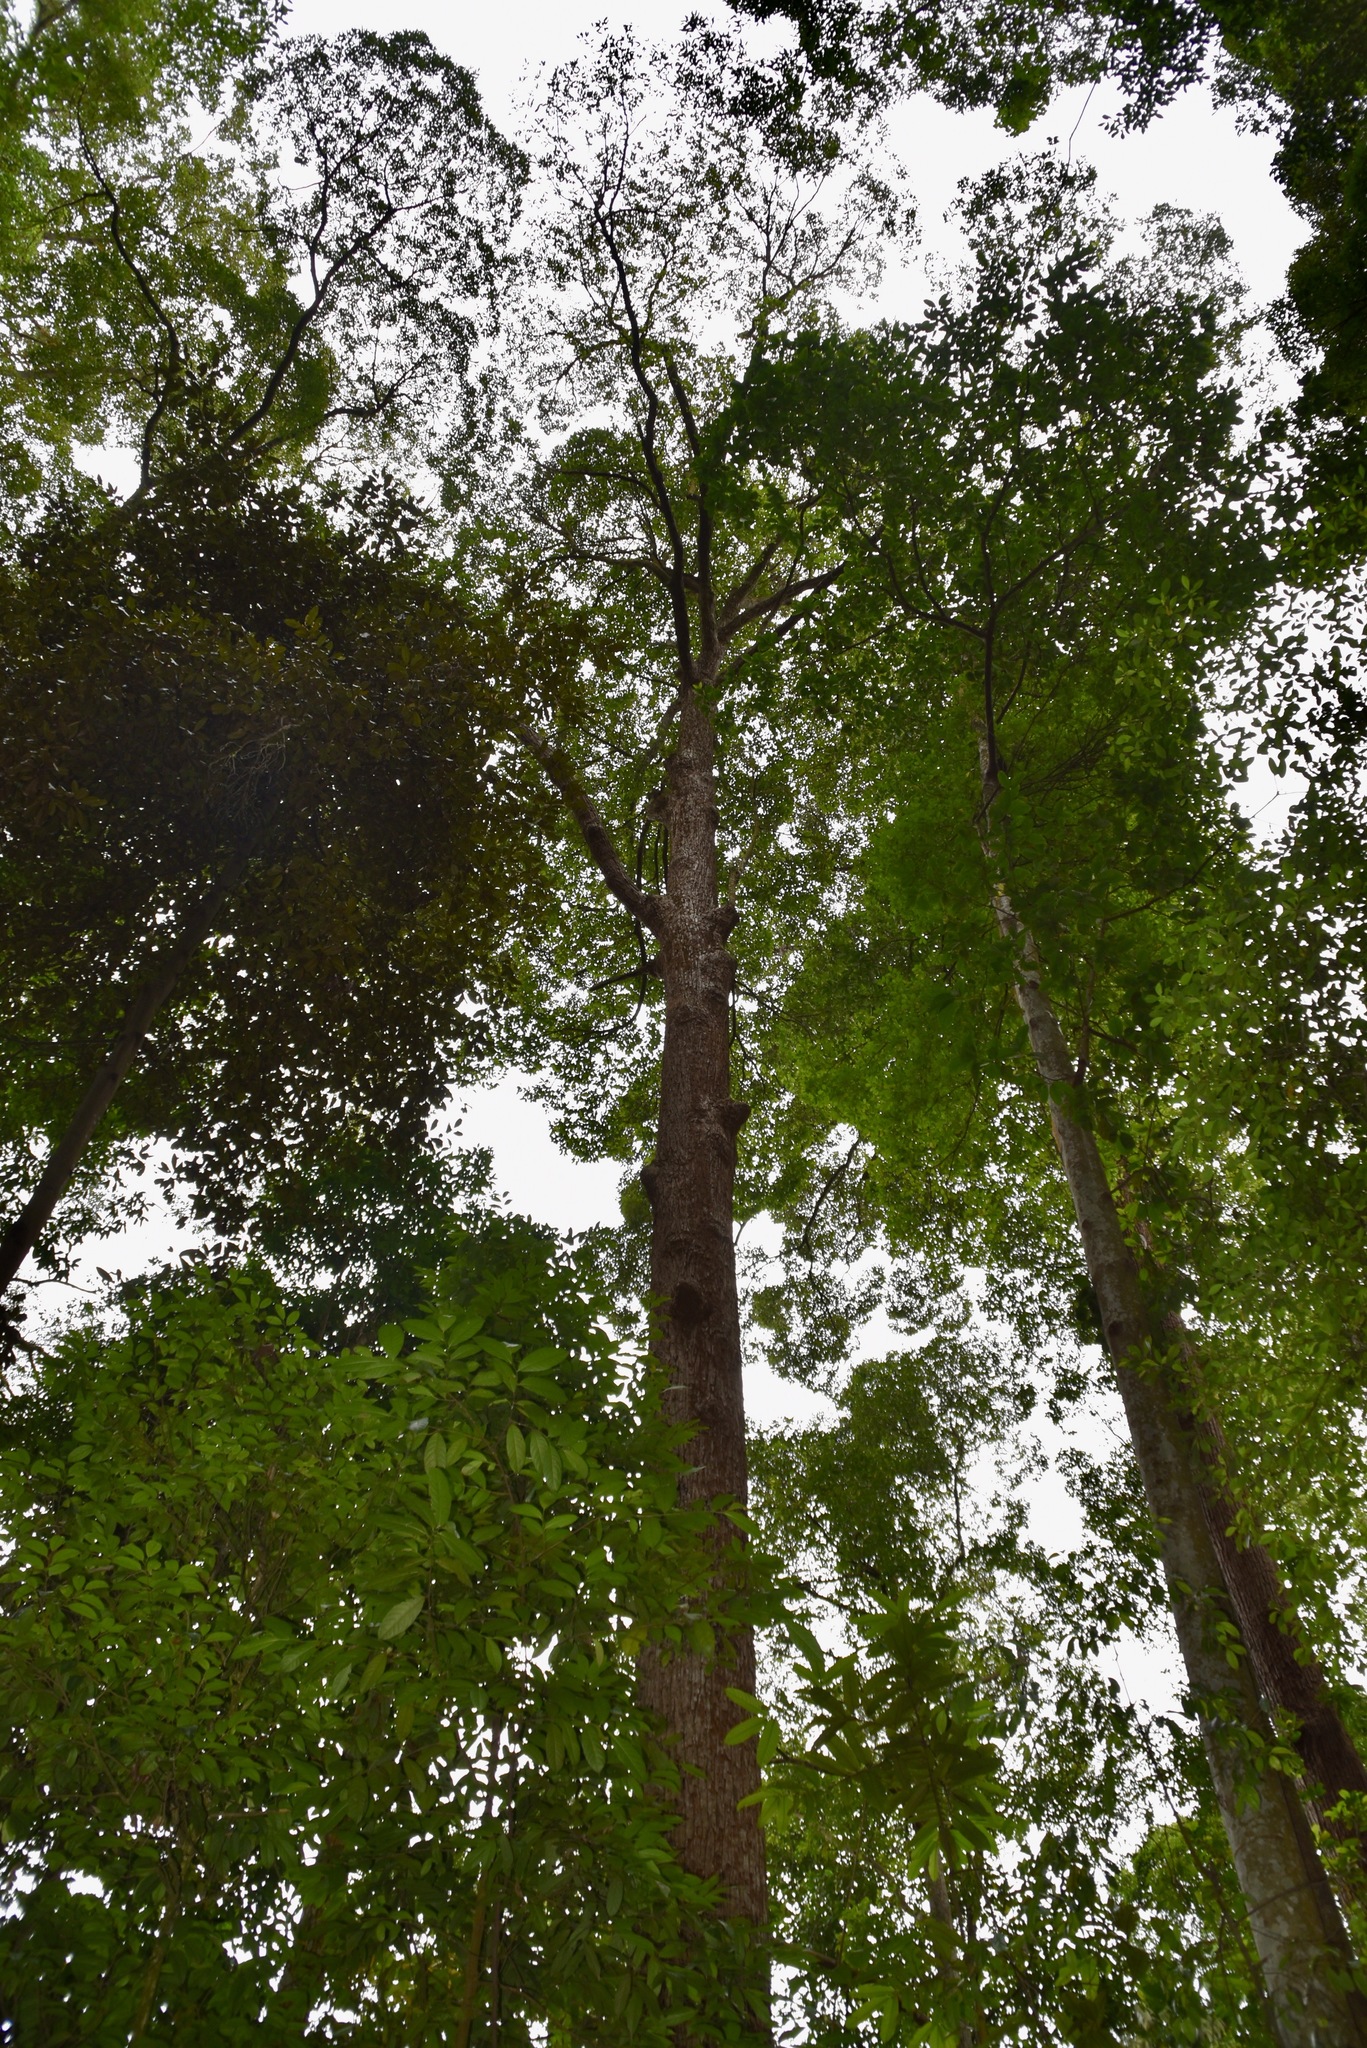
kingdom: Plantae
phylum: Tracheophyta
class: Magnoliopsida
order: Malvales
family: Dipterocarpaceae
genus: Shorea
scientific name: Shorea curtisii
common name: Dark red meranti
